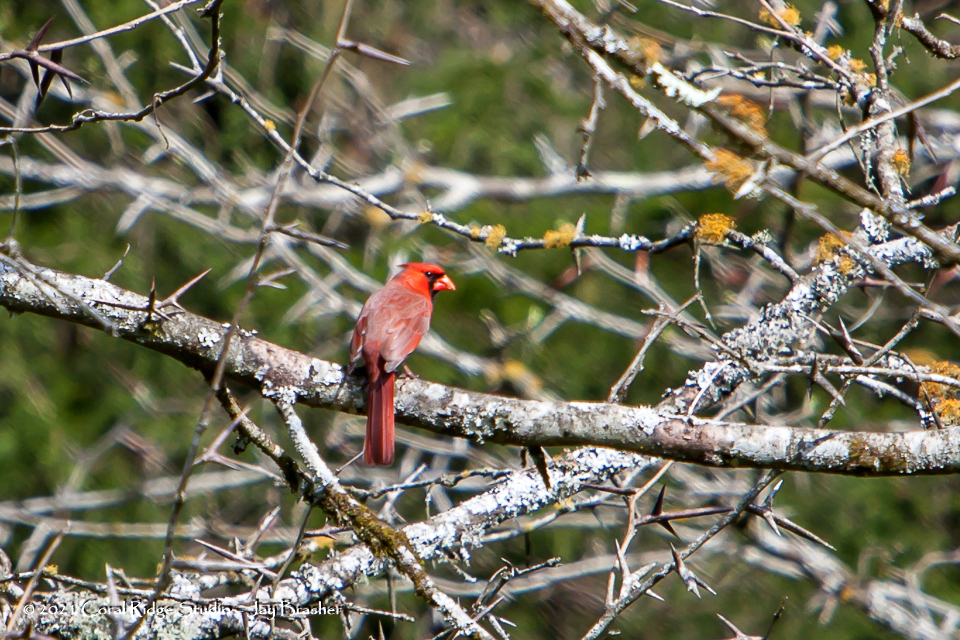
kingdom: Animalia
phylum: Chordata
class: Aves
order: Passeriformes
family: Cardinalidae
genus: Cardinalis
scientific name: Cardinalis cardinalis
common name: Northern cardinal
